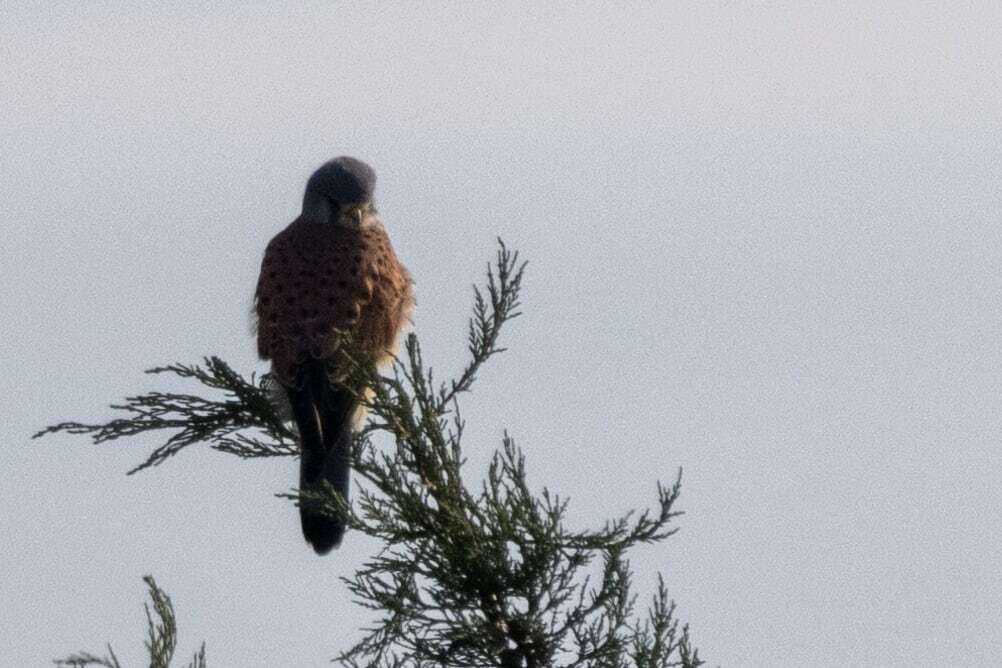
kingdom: Animalia
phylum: Chordata
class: Aves
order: Falconiformes
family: Falconidae
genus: Falco
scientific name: Falco tinnunculus
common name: Common kestrel
